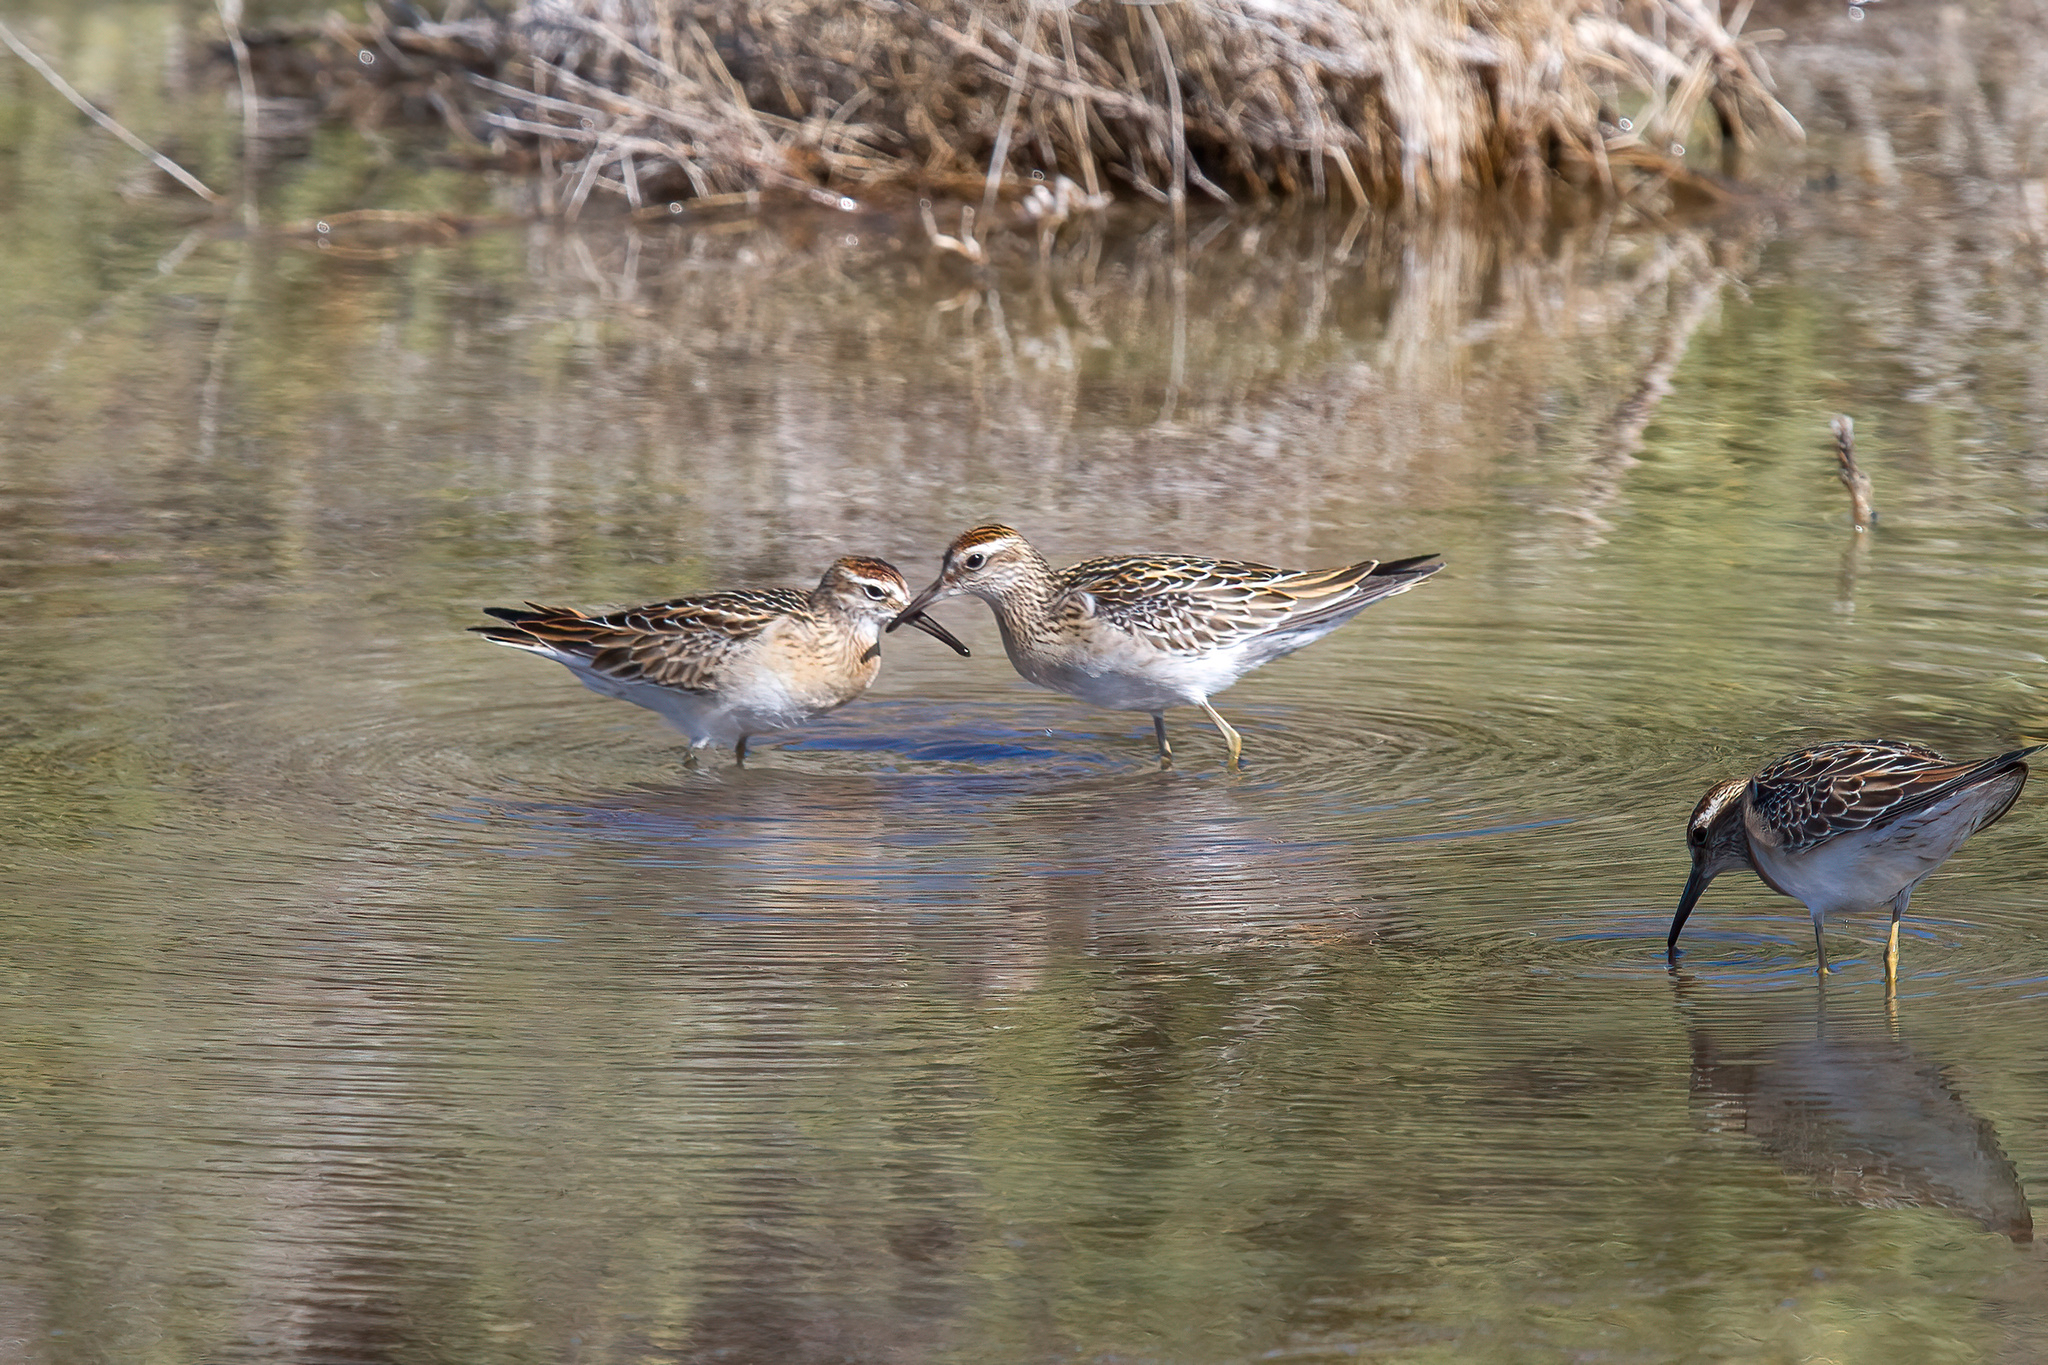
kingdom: Animalia
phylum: Chordata
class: Aves
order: Charadriiformes
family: Scolopacidae
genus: Calidris
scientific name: Calidris acuminata
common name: Sharp-tailed sandpiper
